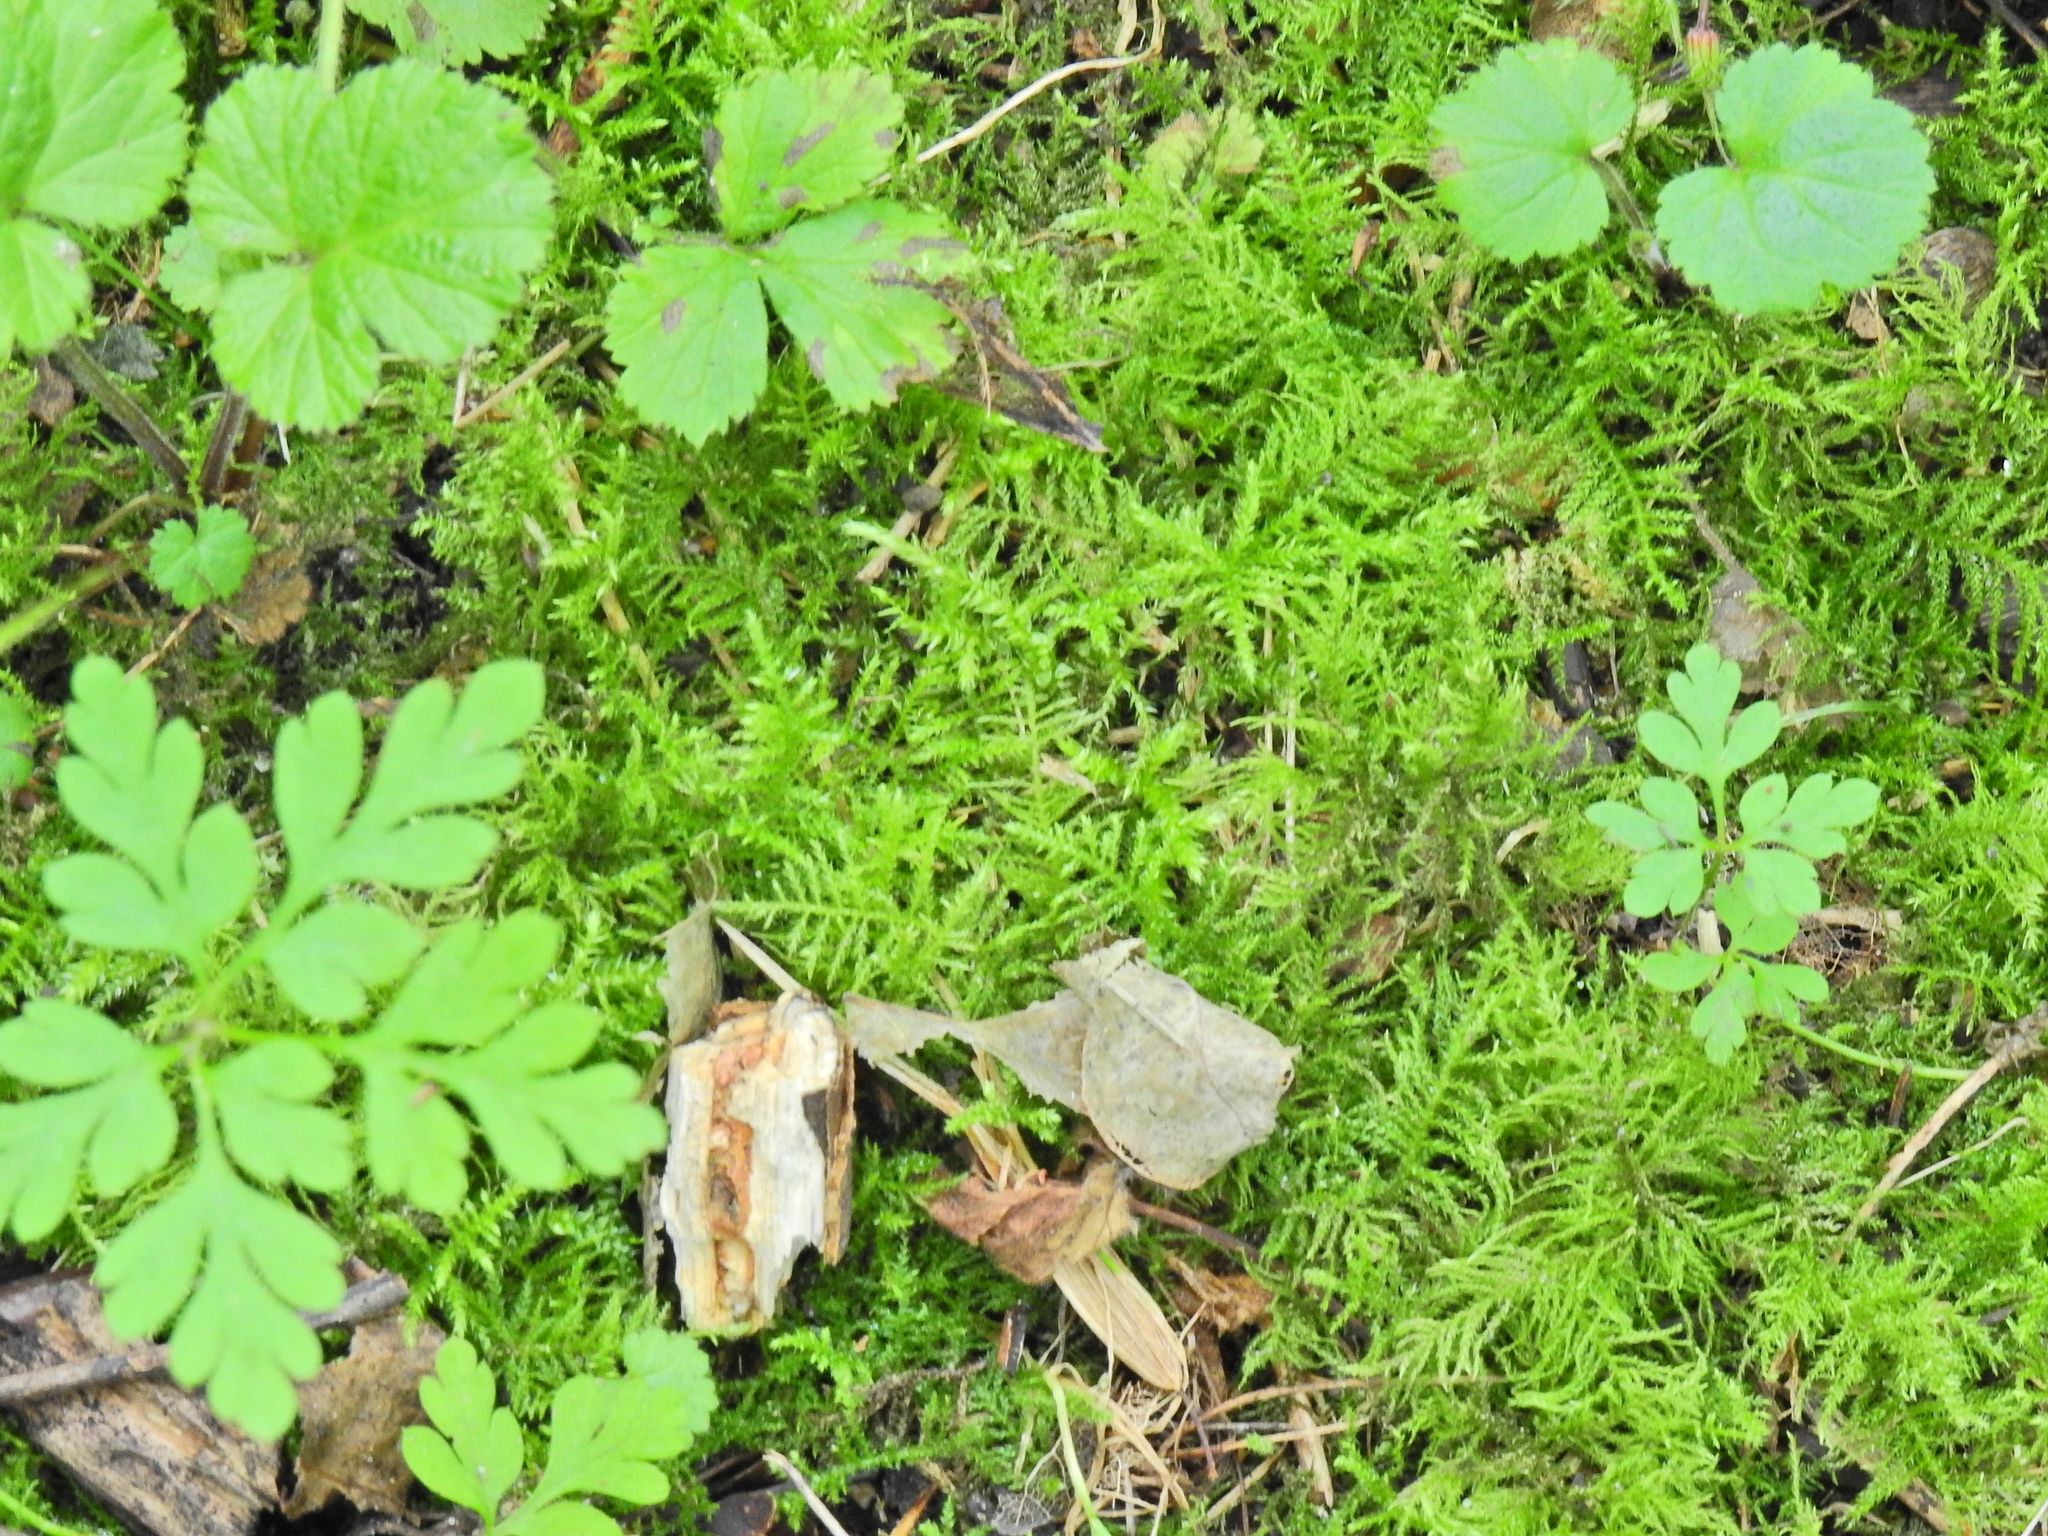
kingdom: Plantae
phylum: Bryophyta
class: Bryopsida
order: Hypnales
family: Brachytheciaceae
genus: Kindbergia
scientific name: Kindbergia praelonga
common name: Slender beaked moss
